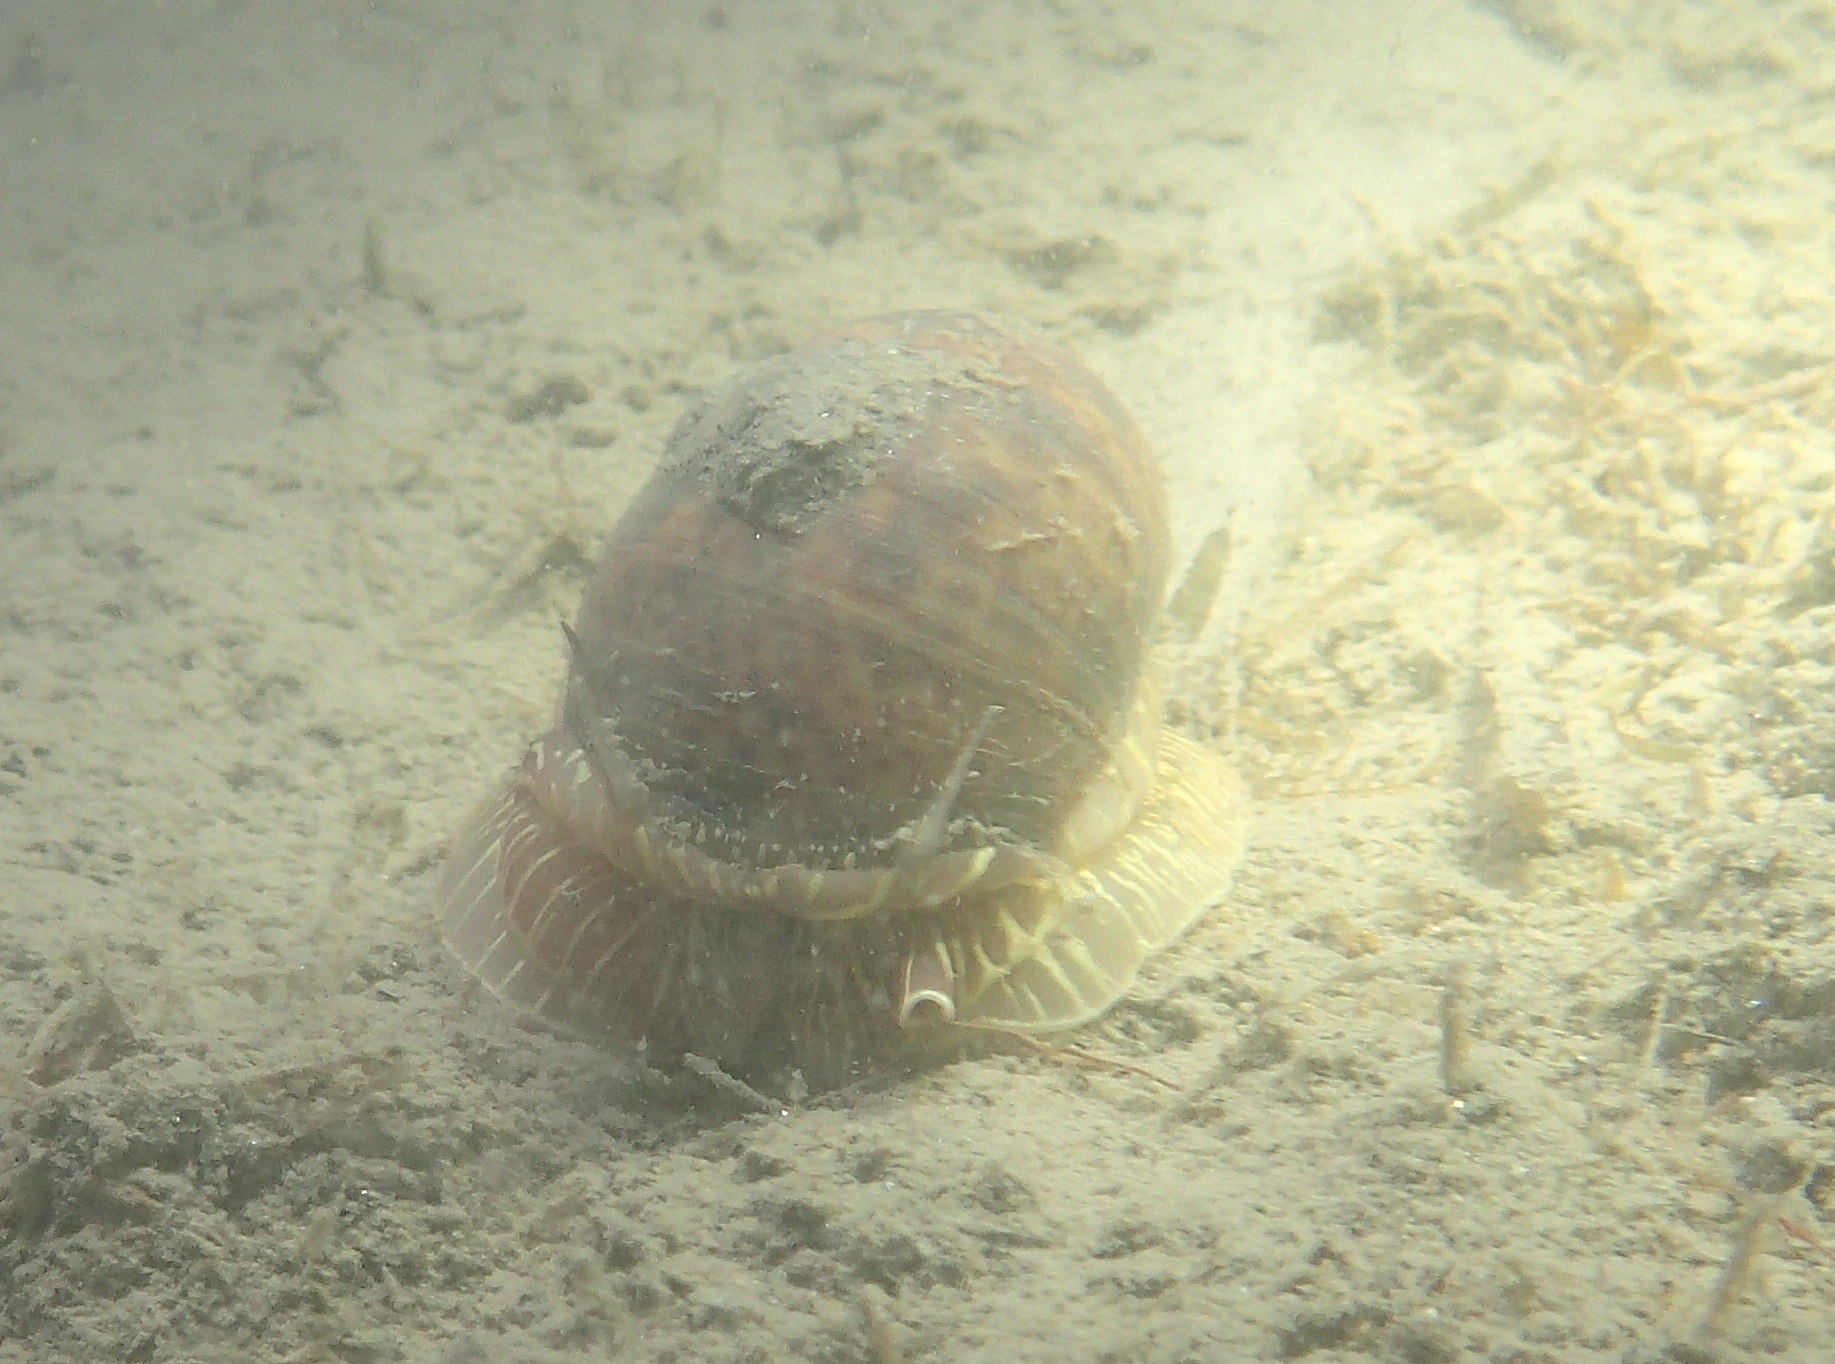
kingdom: Animalia
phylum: Mollusca
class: Gastropoda
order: Littorinimorpha
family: Naticidae
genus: Naticarius
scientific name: Naticarius stercusmuscarum
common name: Fly-speck moonsnail
